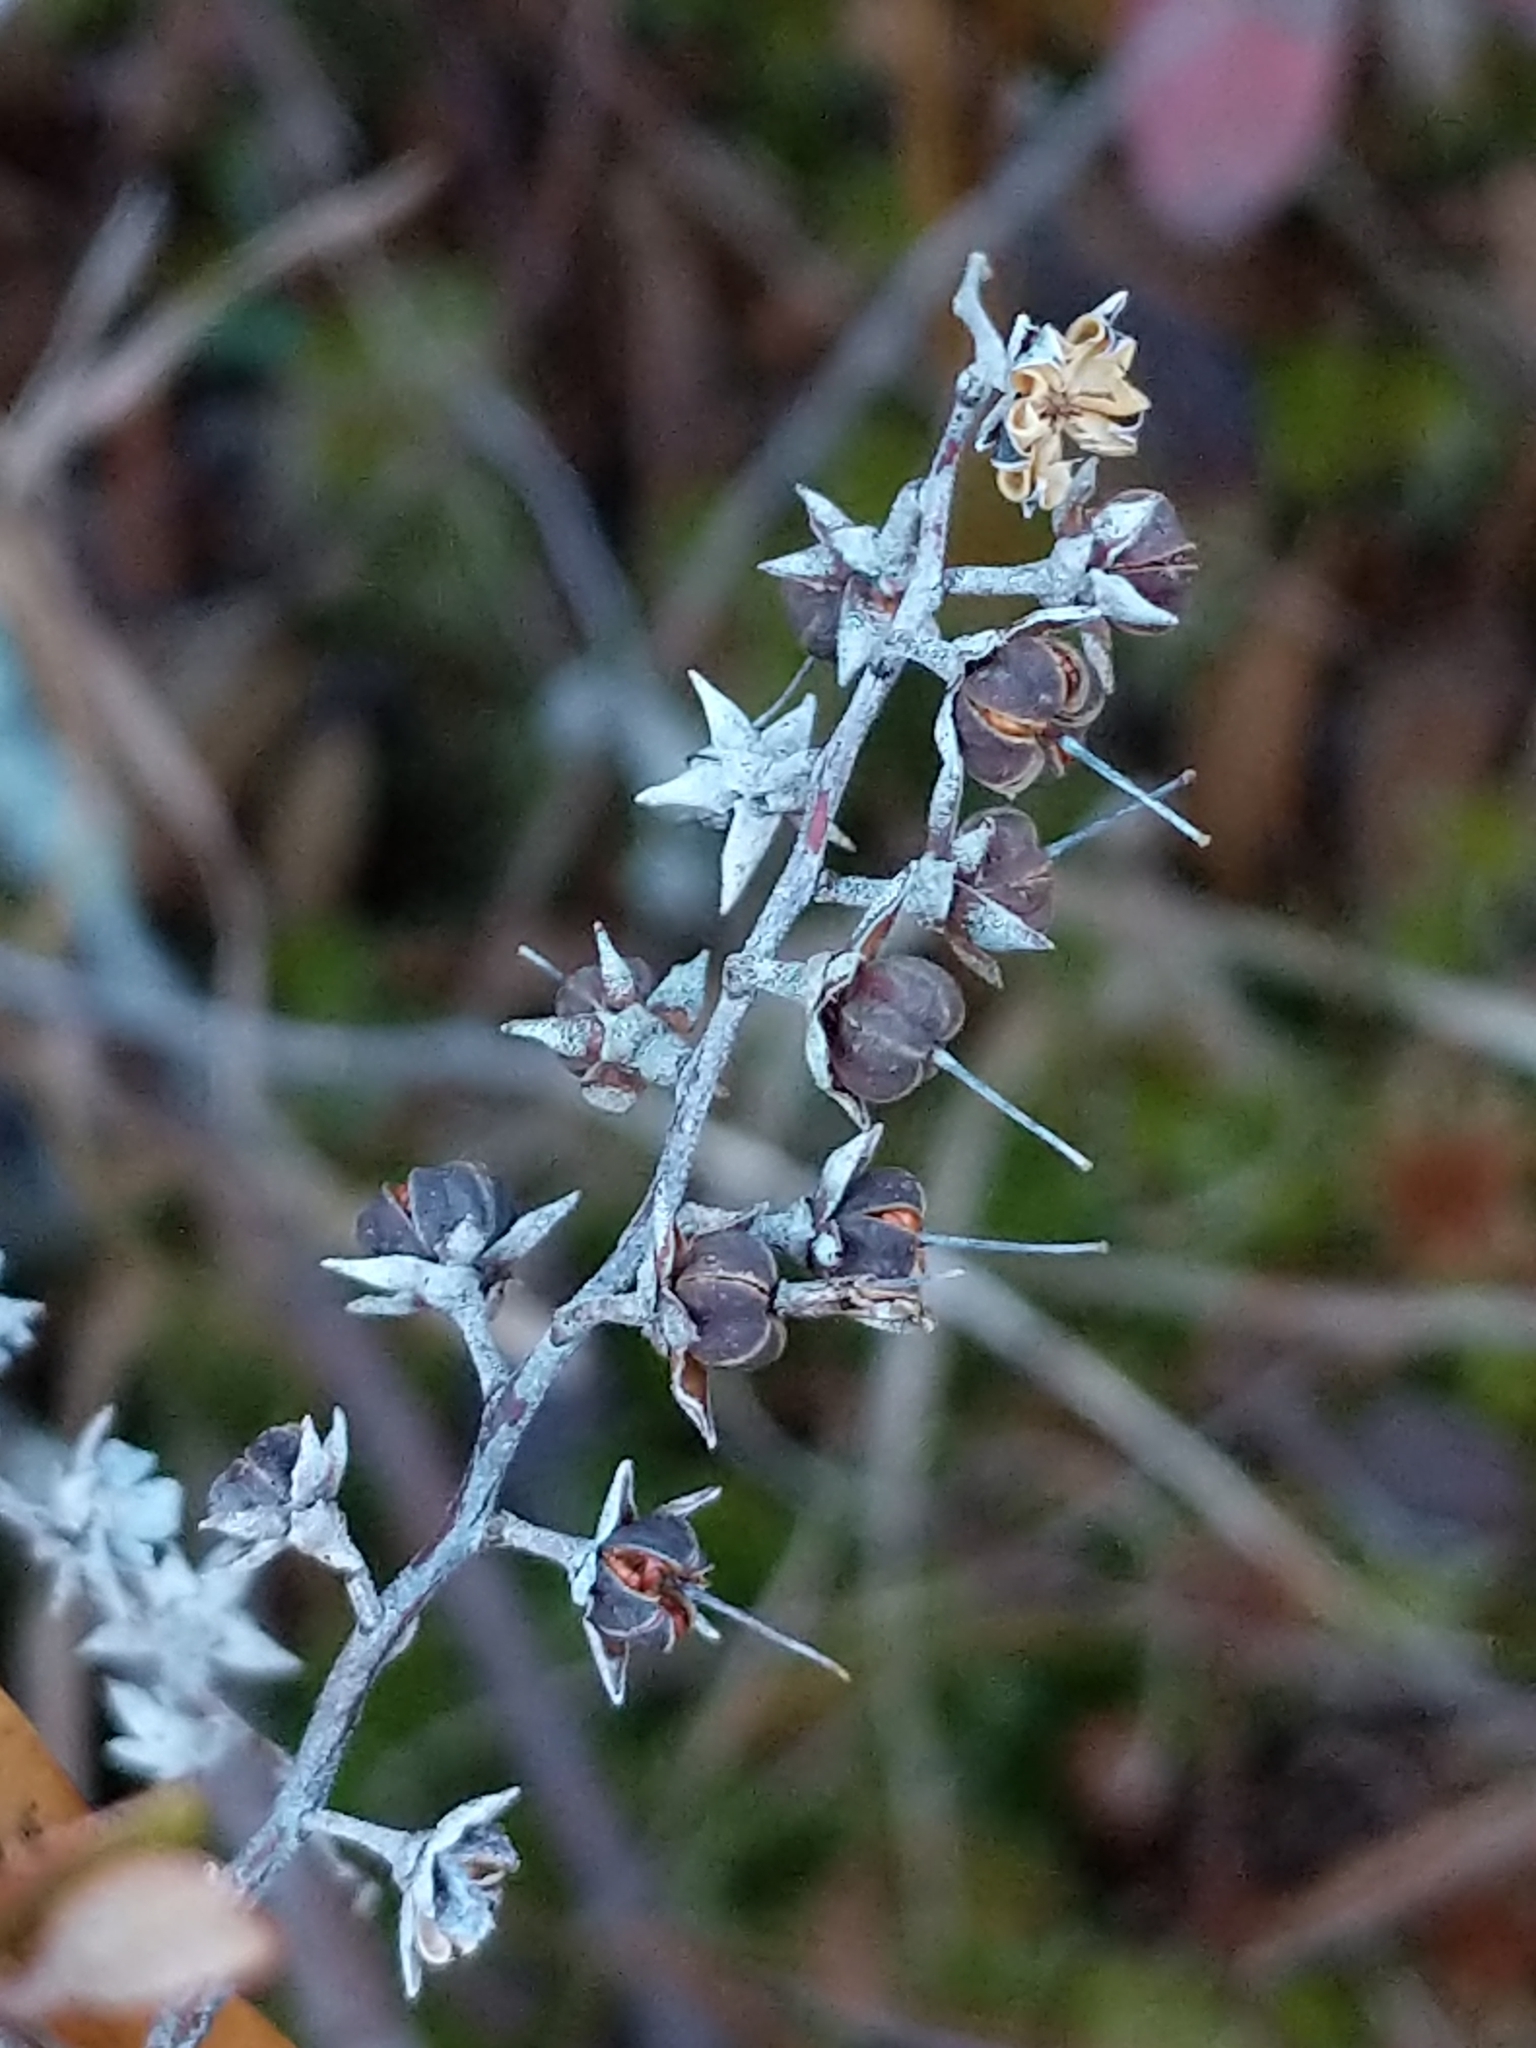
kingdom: Plantae
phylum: Tracheophyta
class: Magnoliopsida
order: Ericales
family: Ericaceae
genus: Chamaedaphne
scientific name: Chamaedaphne calyculata
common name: Leatherleaf
